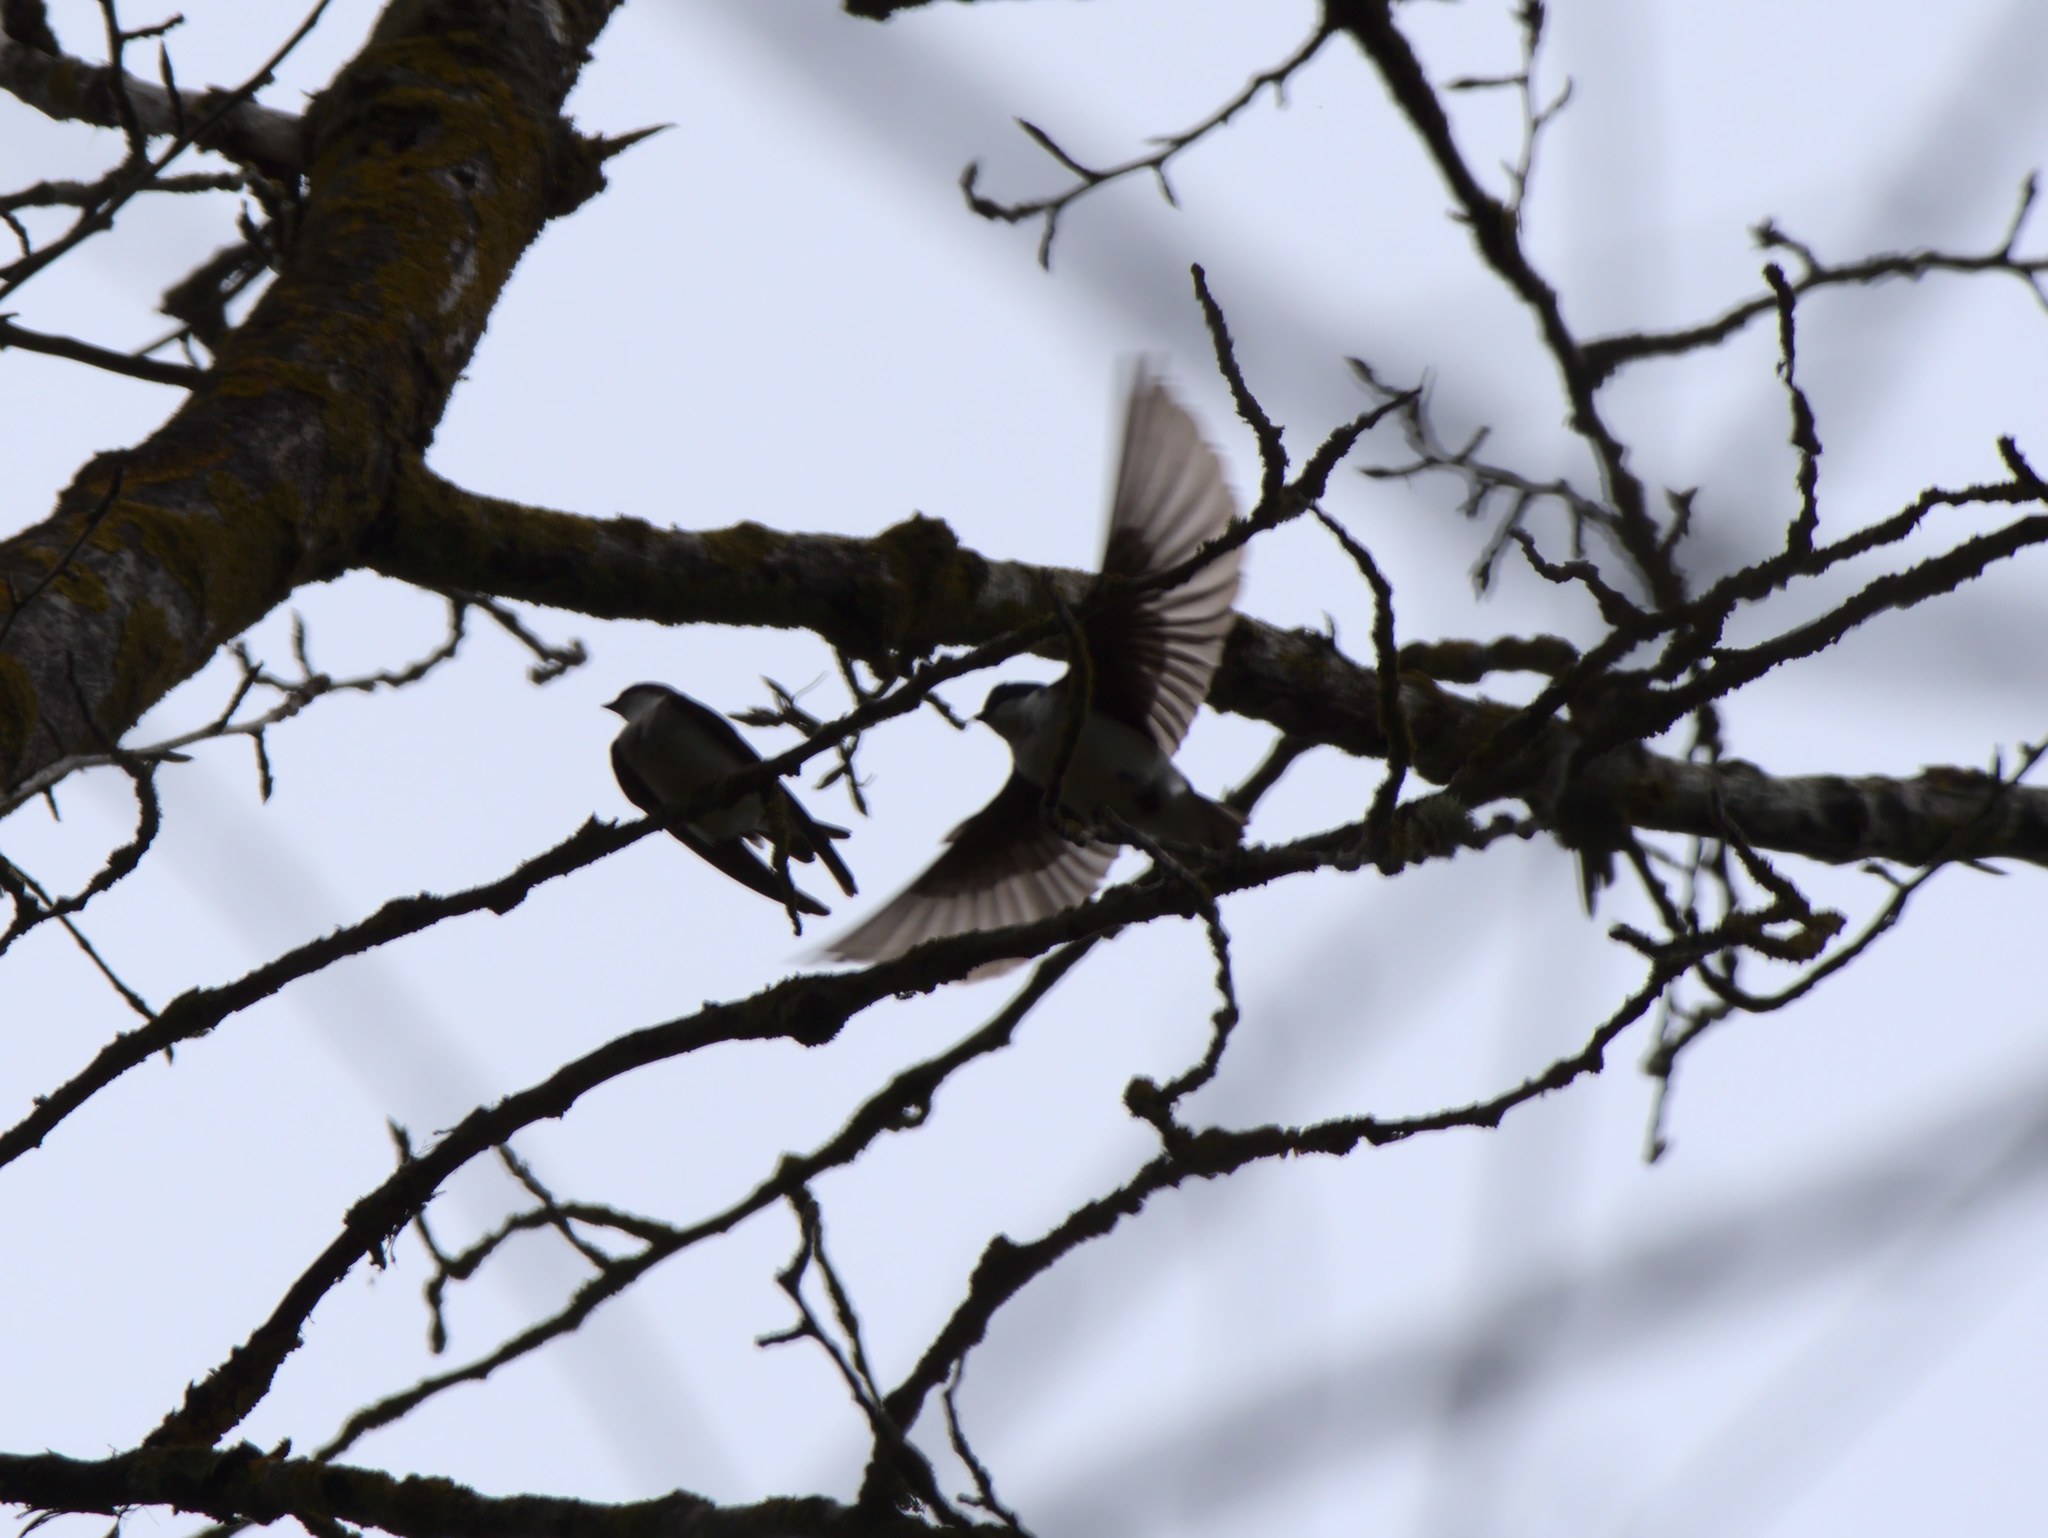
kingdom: Animalia
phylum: Chordata
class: Aves
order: Passeriformes
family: Hirundinidae
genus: Tachycineta
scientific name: Tachycineta bicolor
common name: Tree swallow
